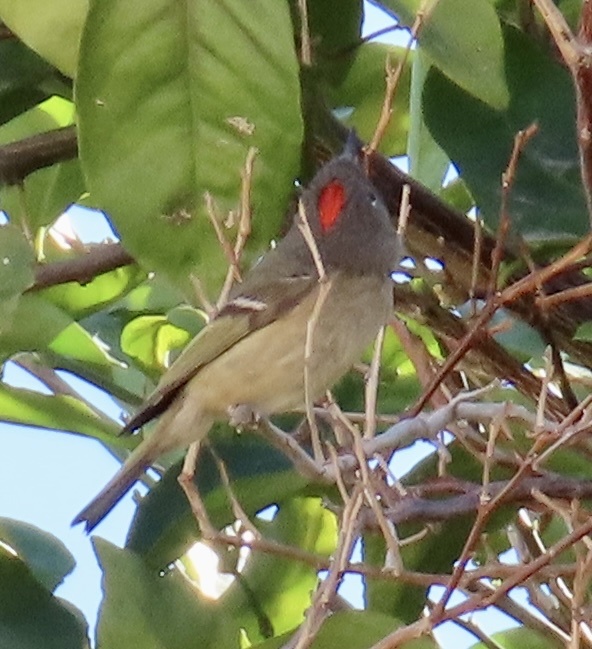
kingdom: Animalia
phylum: Chordata
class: Aves
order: Passeriformes
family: Regulidae
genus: Regulus
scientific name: Regulus calendula
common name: Ruby-crowned kinglet
